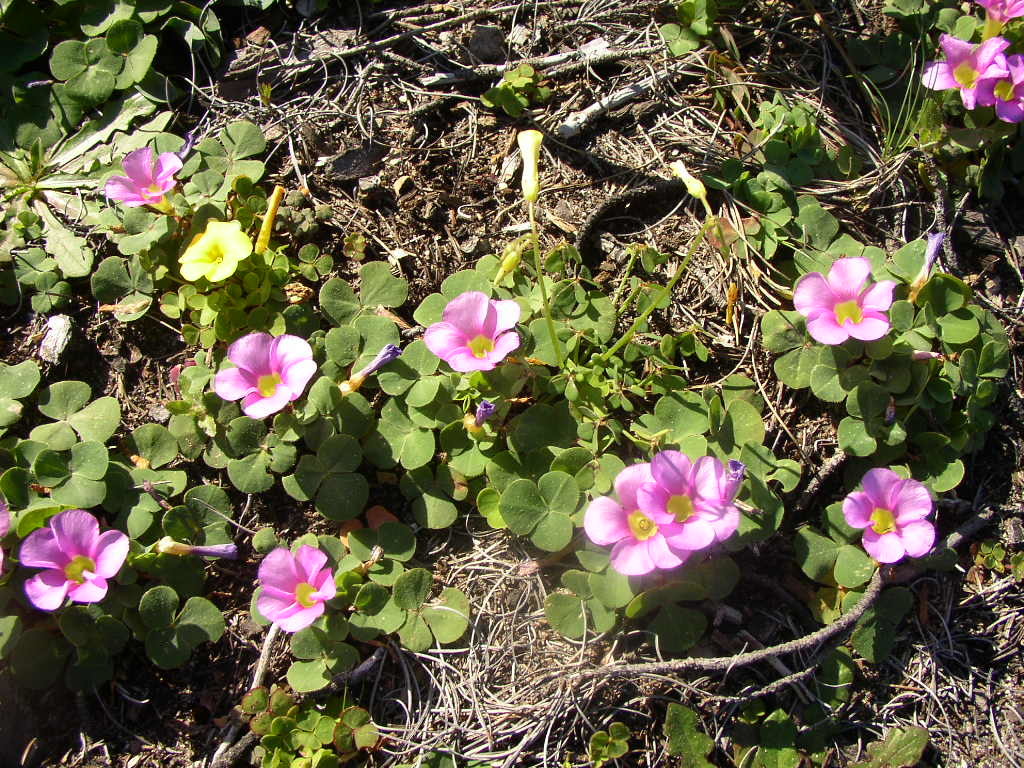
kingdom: Plantae
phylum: Tracheophyta
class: Magnoliopsida
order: Oxalidales
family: Oxalidaceae
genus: Oxalis
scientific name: Oxalis purpurea
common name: Purple woodsorrel
